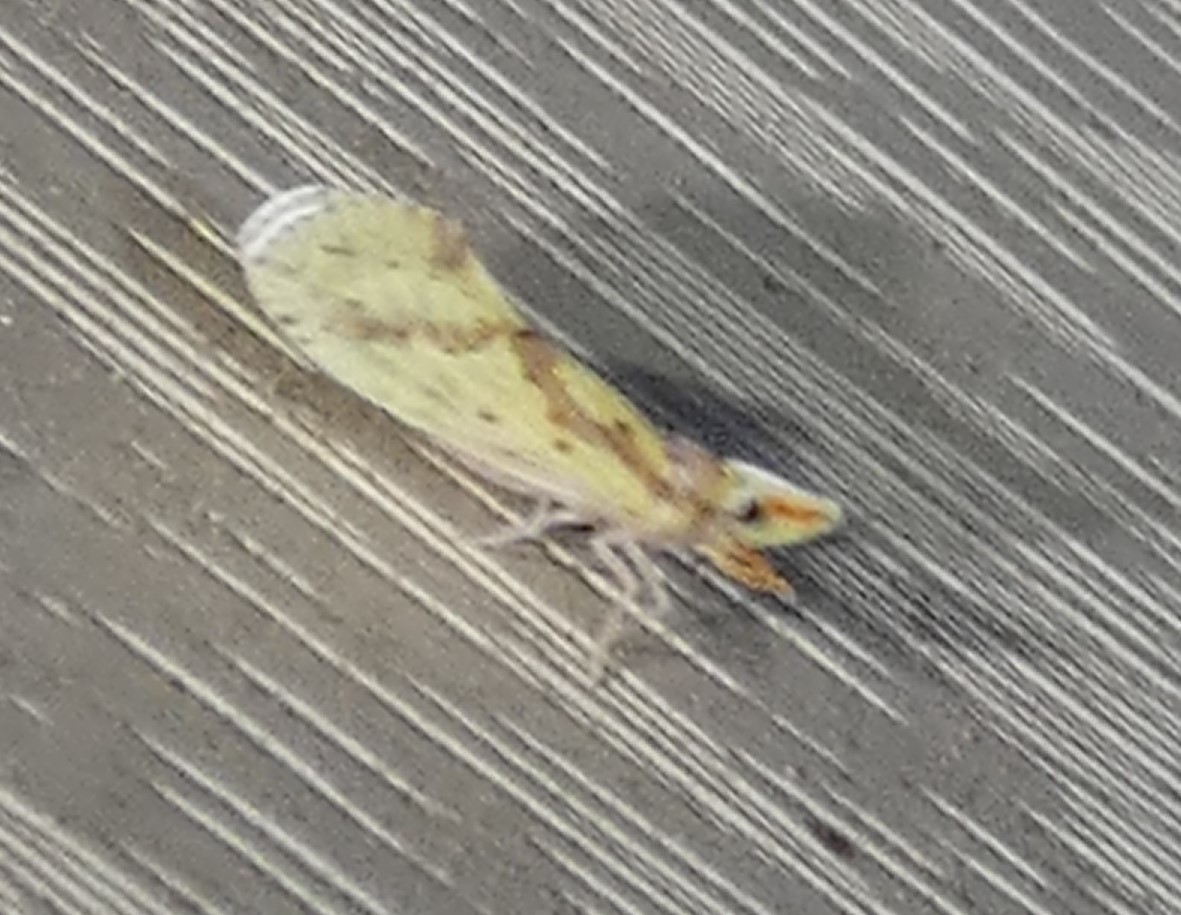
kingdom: Animalia
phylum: Arthropoda
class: Insecta
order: Hemiptera
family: Derbidae
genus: Otiocerus
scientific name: Otiocerus wolfii
